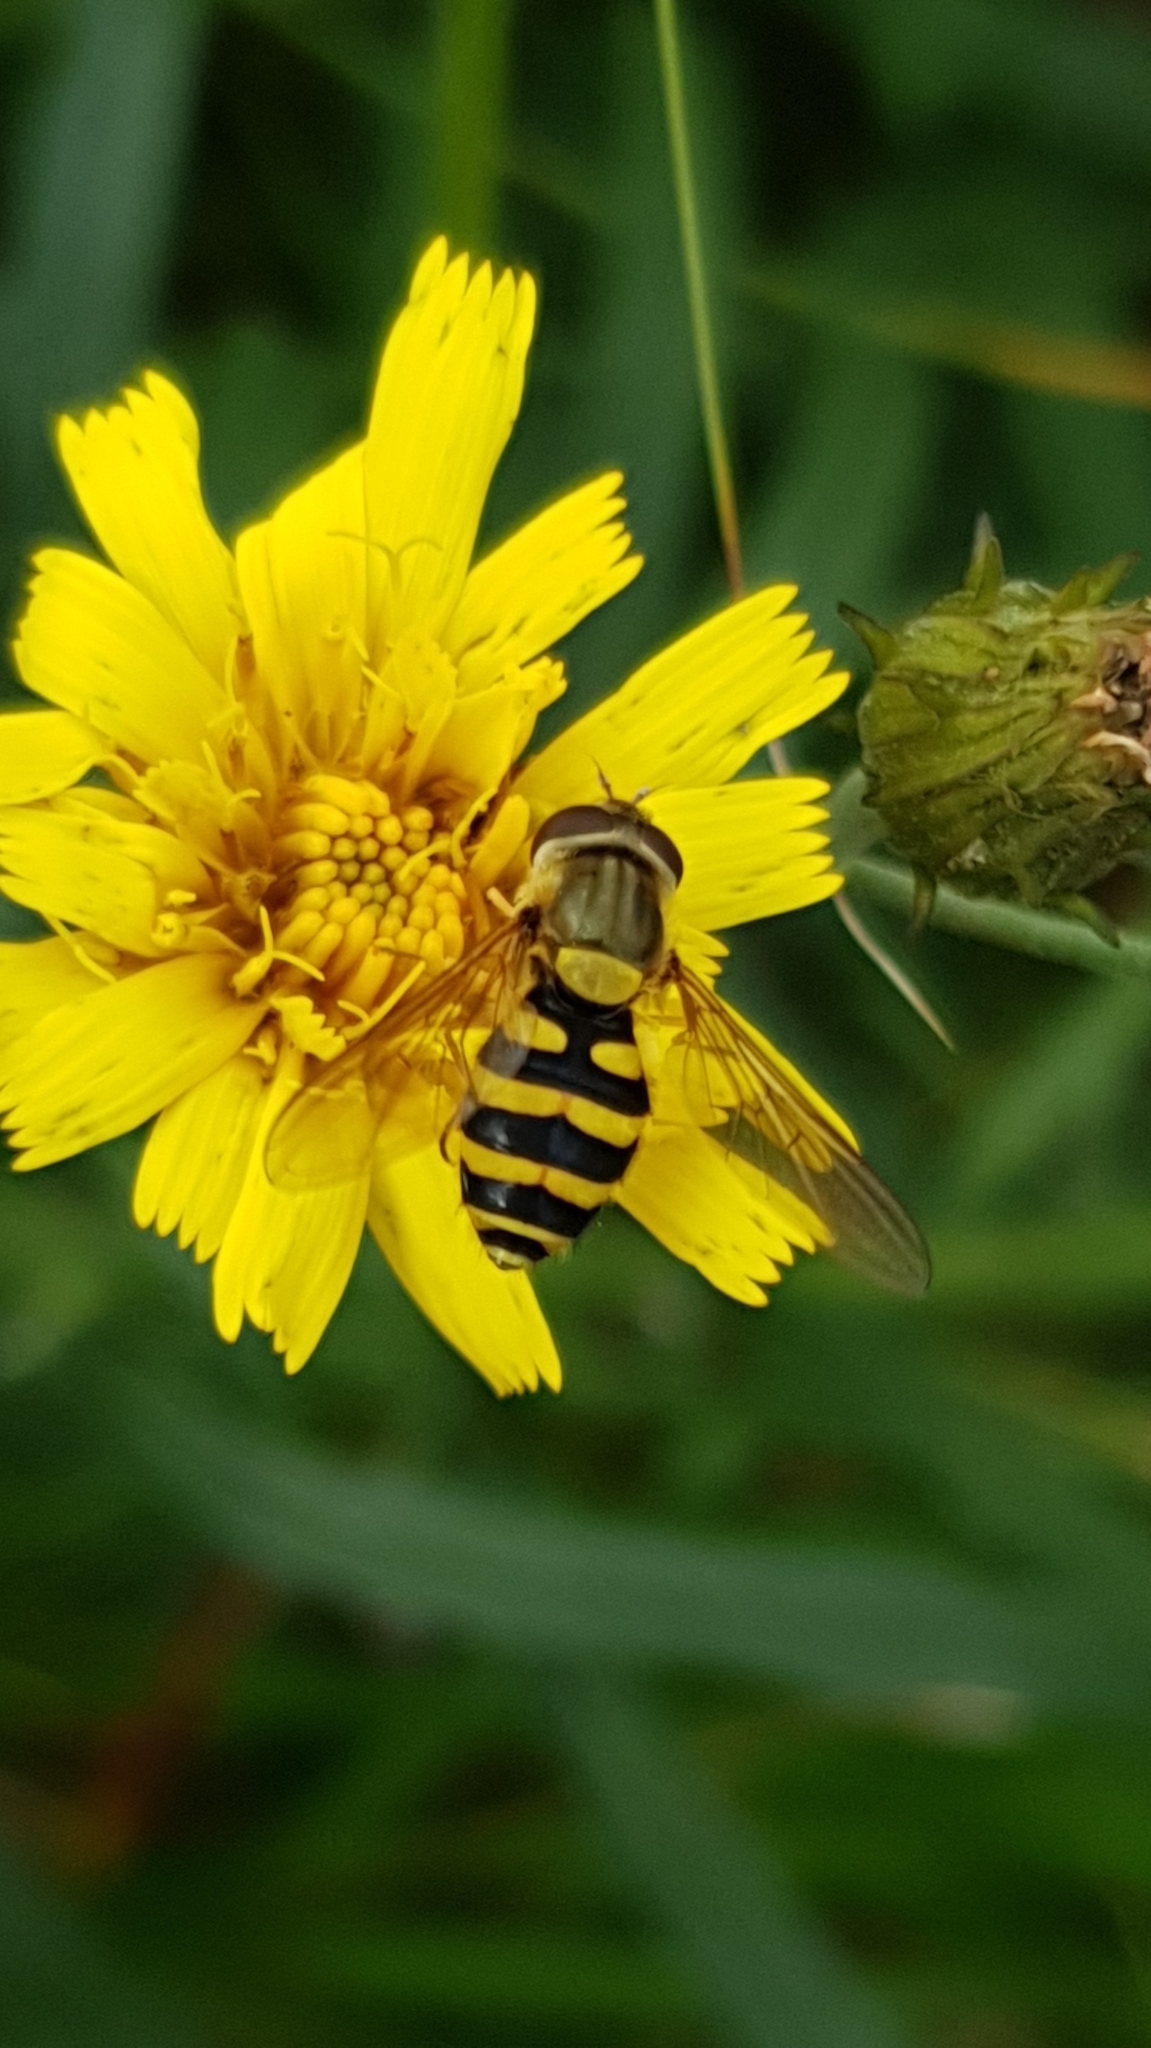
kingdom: Animalia
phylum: Arthropoda
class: Insecta
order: Diptera
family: Syrphidae
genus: Syrphus
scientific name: Syrphus
